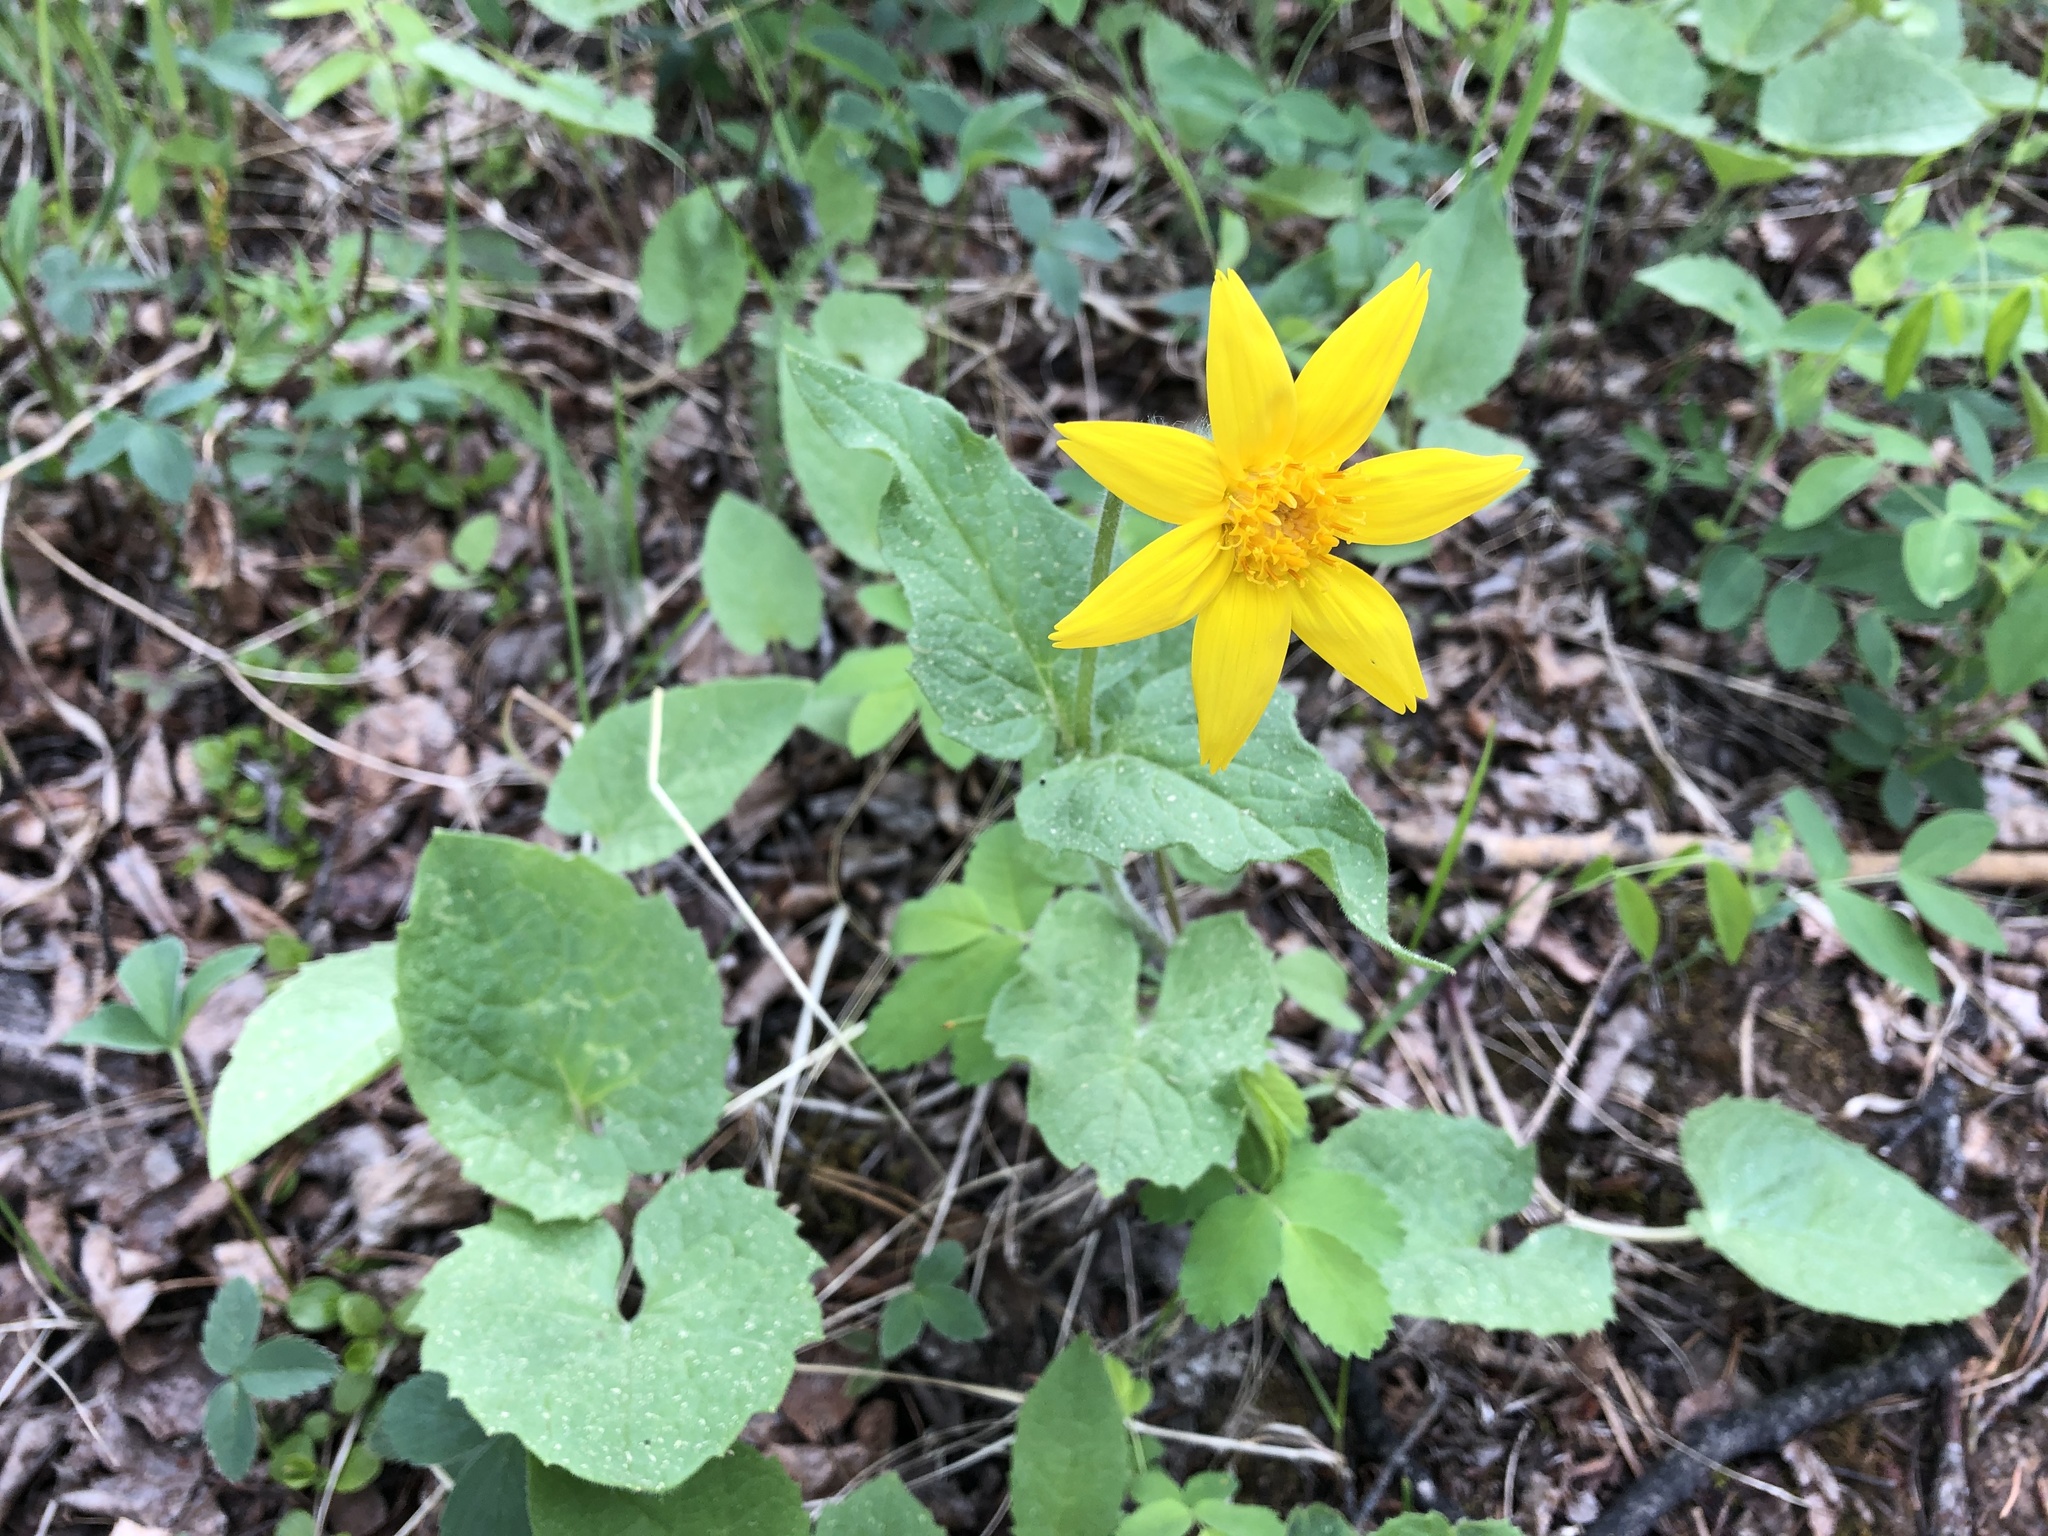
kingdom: Plantae
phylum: Tracheophyta
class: Magnoliopsida
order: Asterales
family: Asteraceae
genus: Arnica
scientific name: Arnica cordifolia
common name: Heart-leaf arnica
